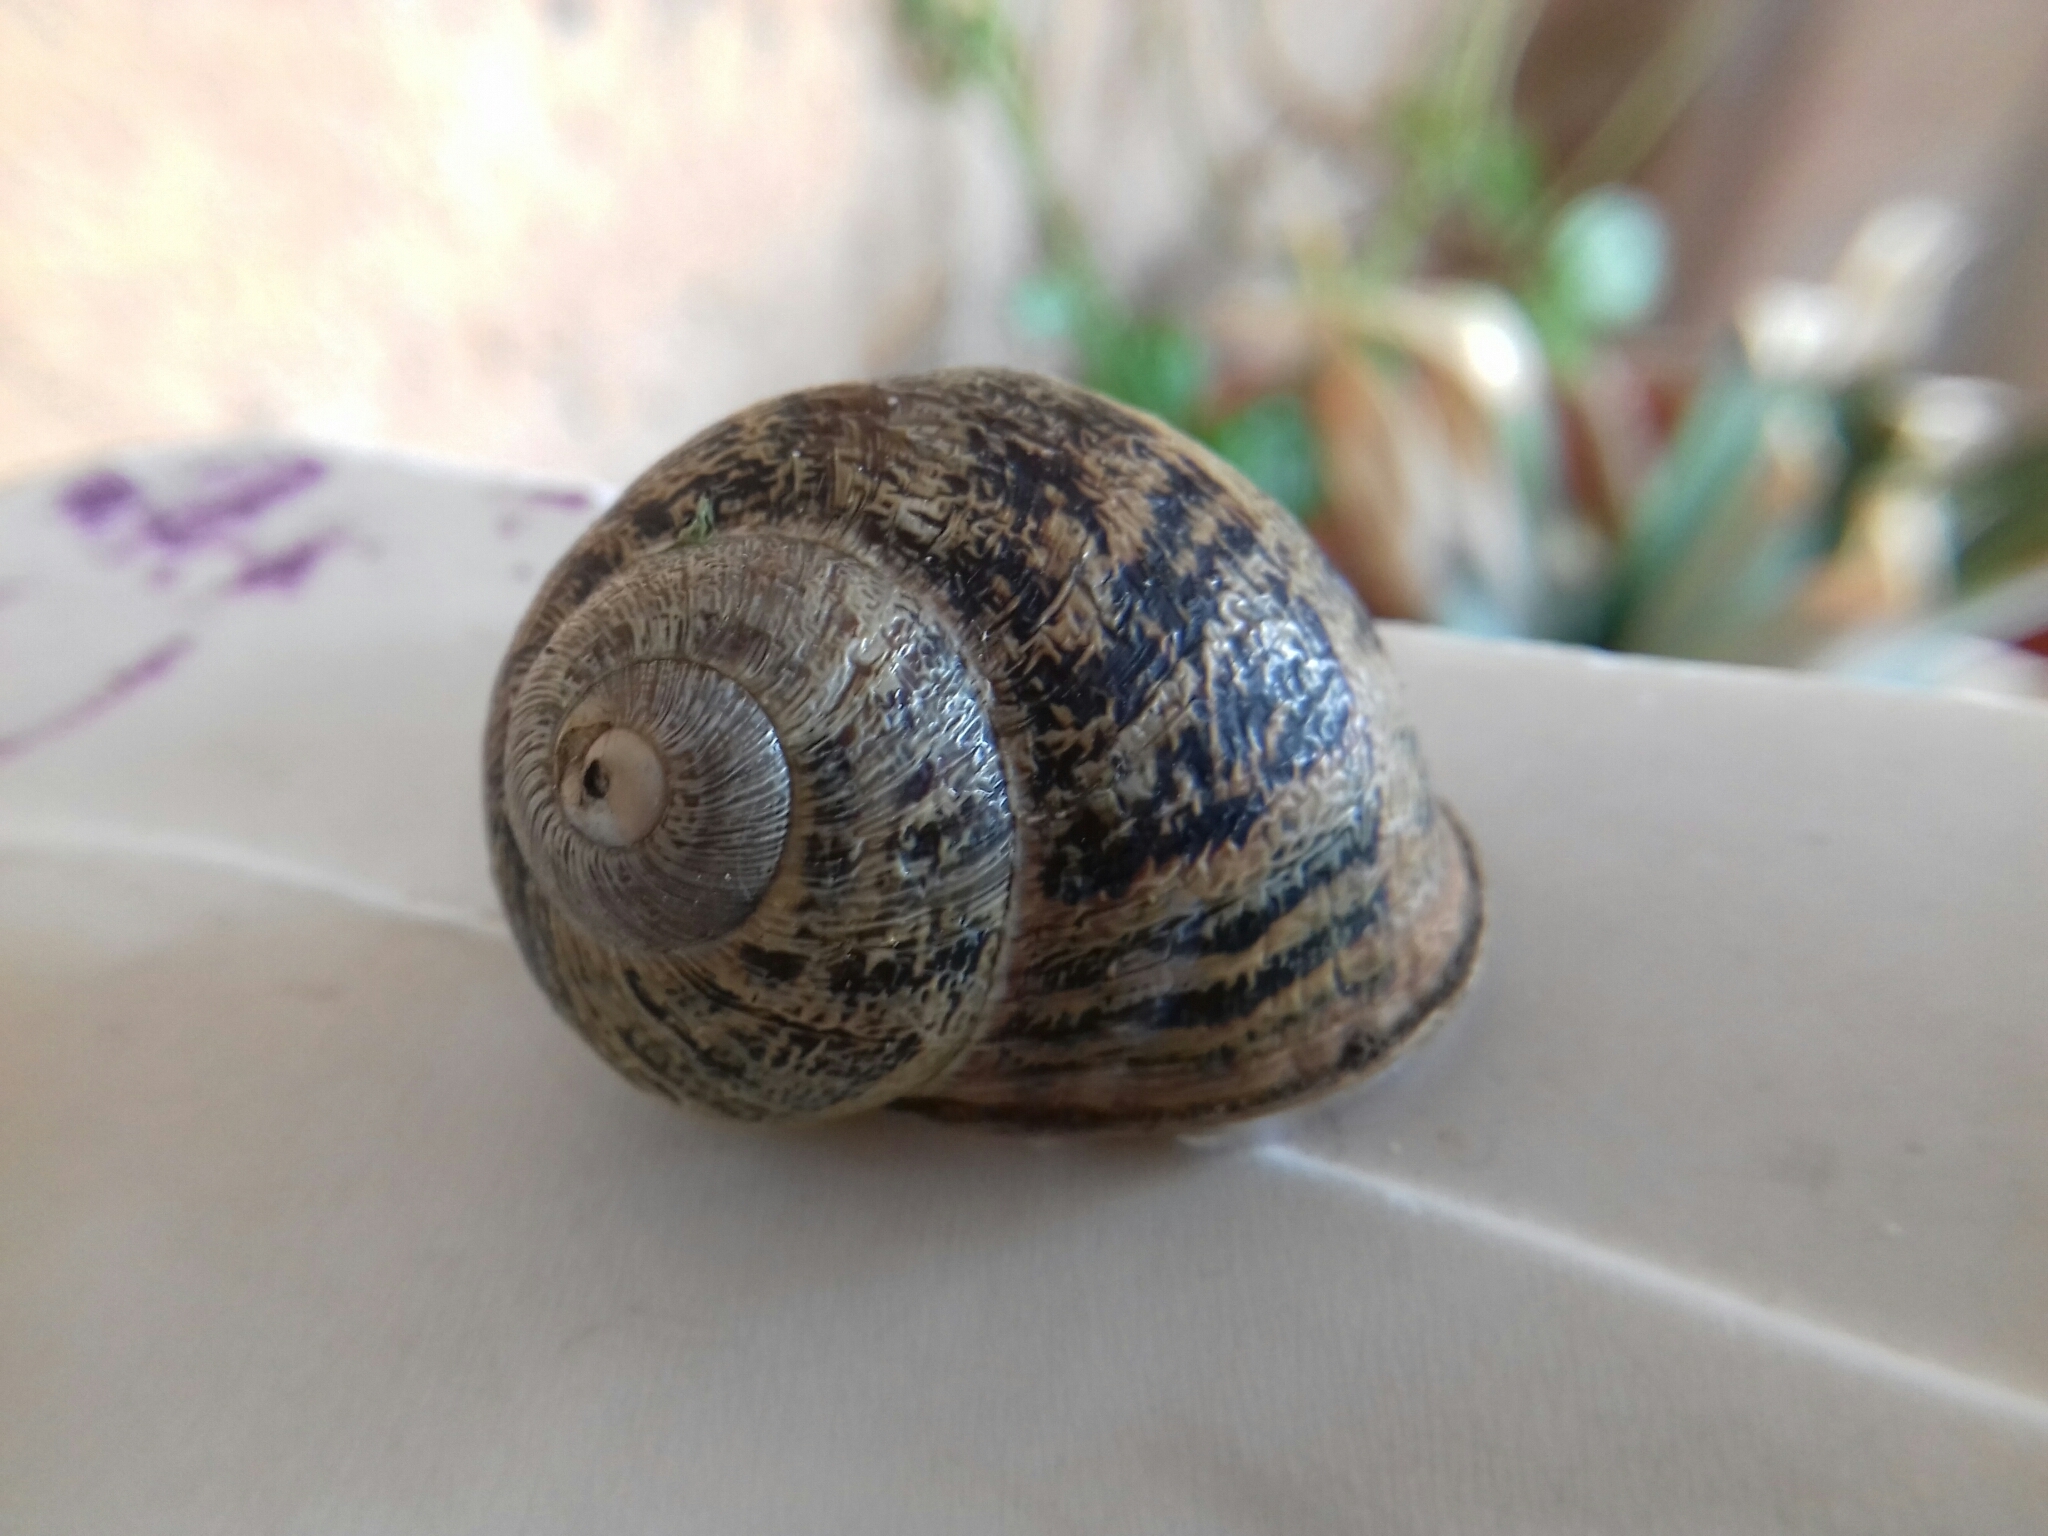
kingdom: Animalia
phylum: Mollusca
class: Gastropoda
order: Stylommatophora
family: Helicidae
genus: Cornu
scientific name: Cornu aspersum
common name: Brown garden snail
